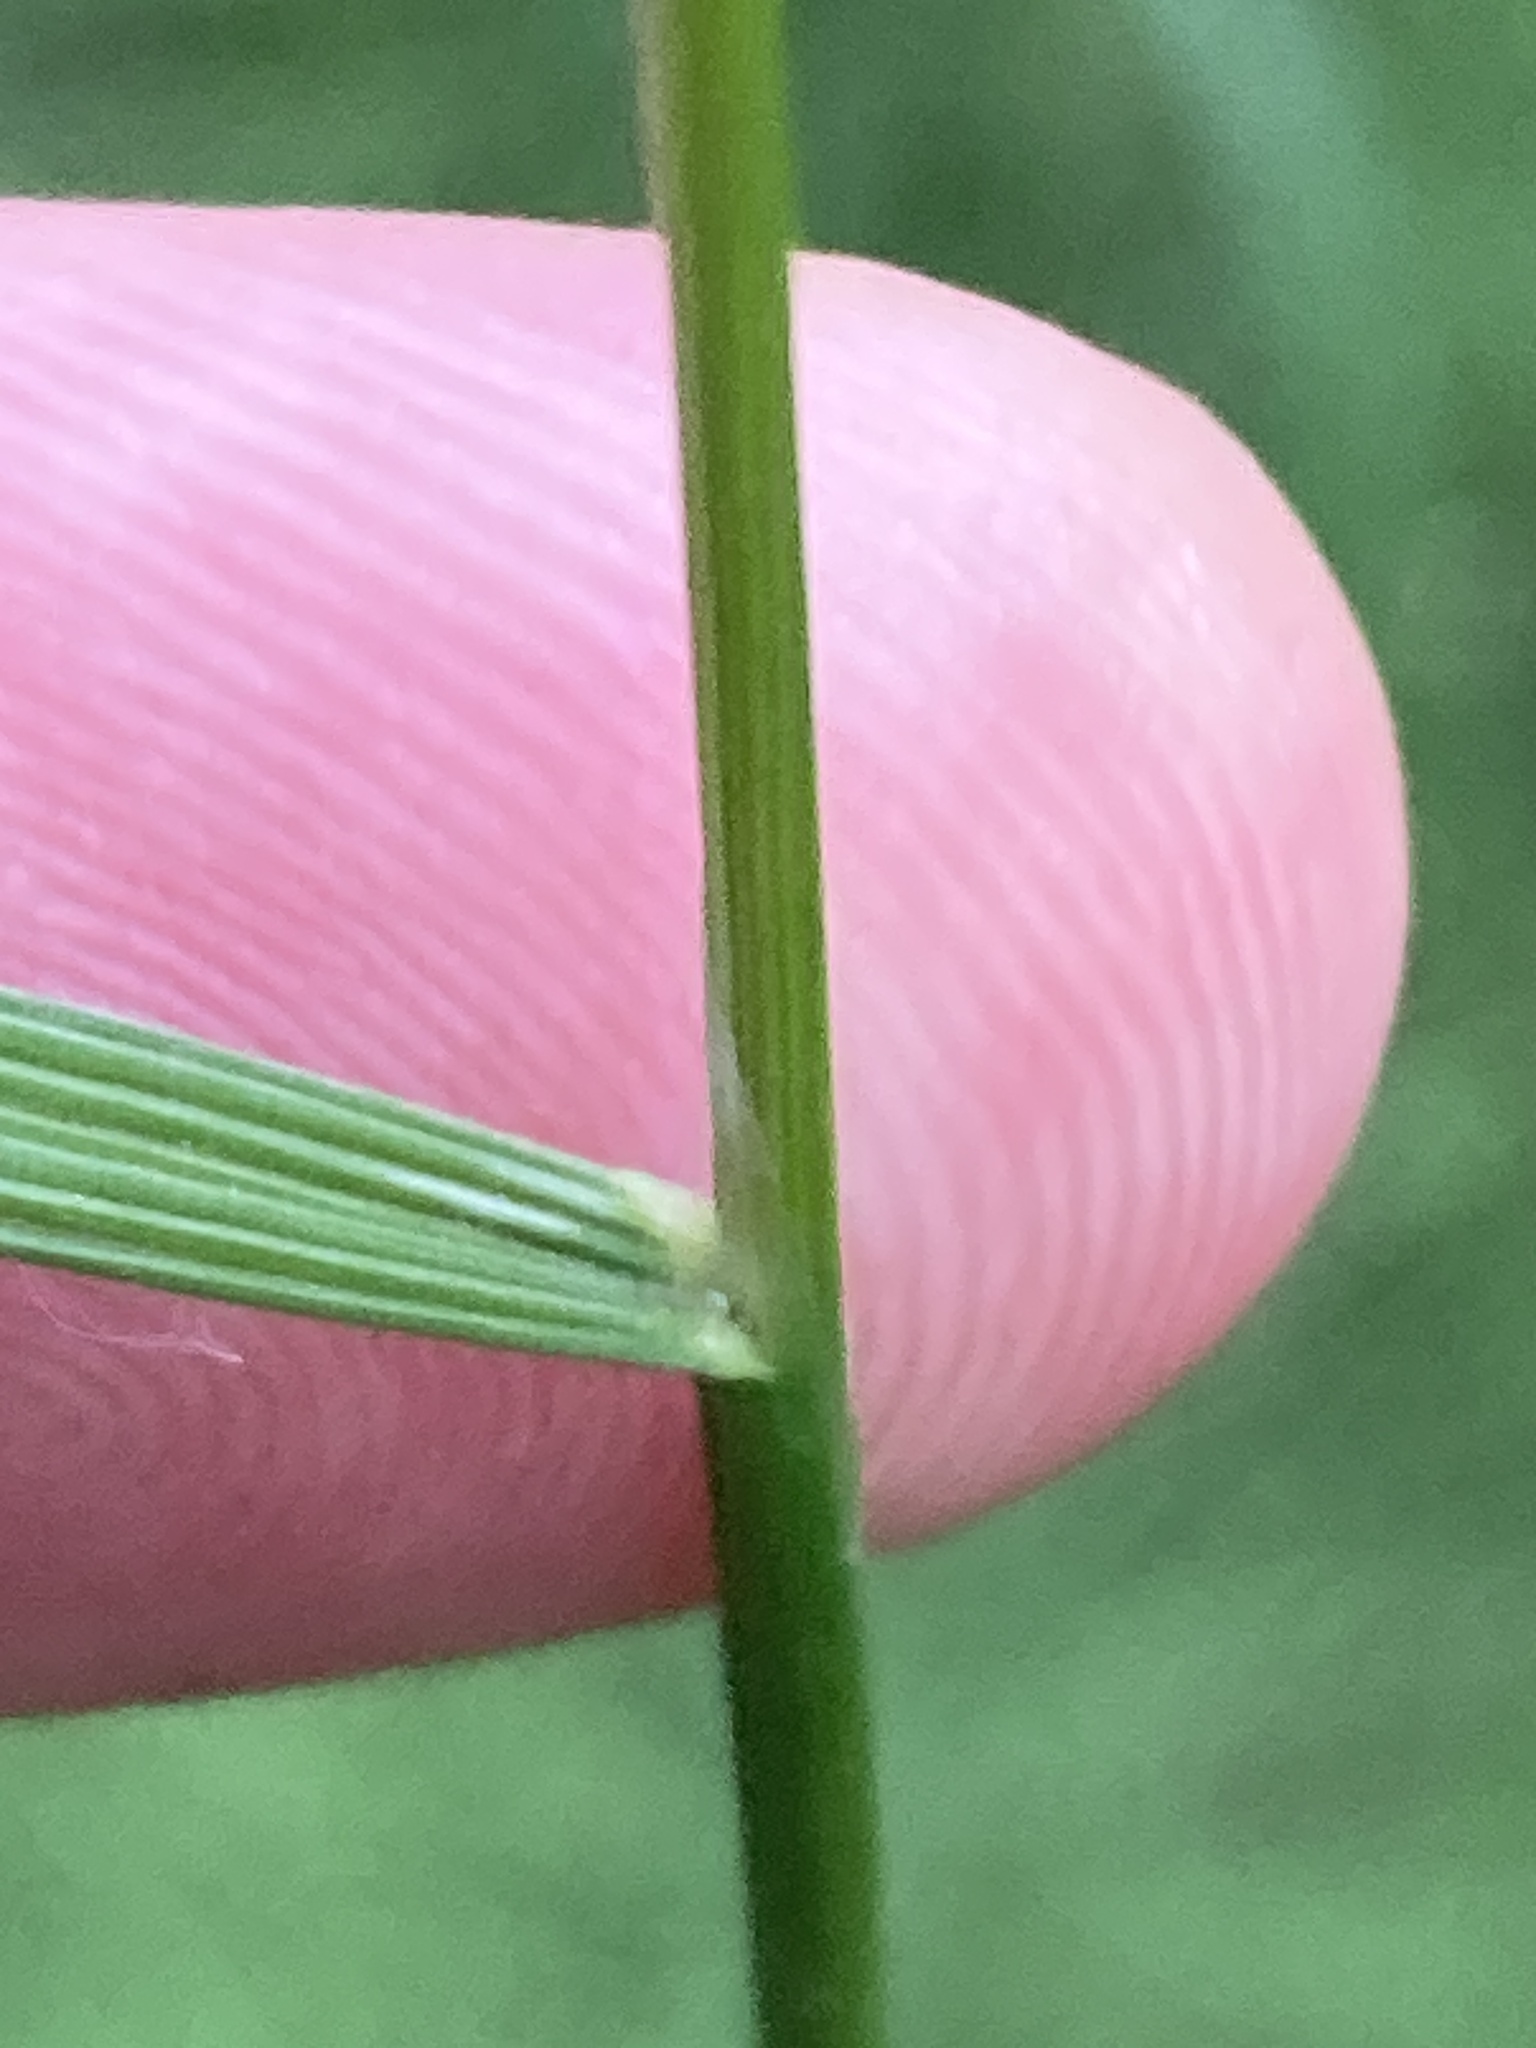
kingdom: Plantae
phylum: Tracheophyta
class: Liliopsida
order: Poales
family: Poaceae
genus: Deschampsia
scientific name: Deschampsia cespitosa
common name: Tufted hair-grass
